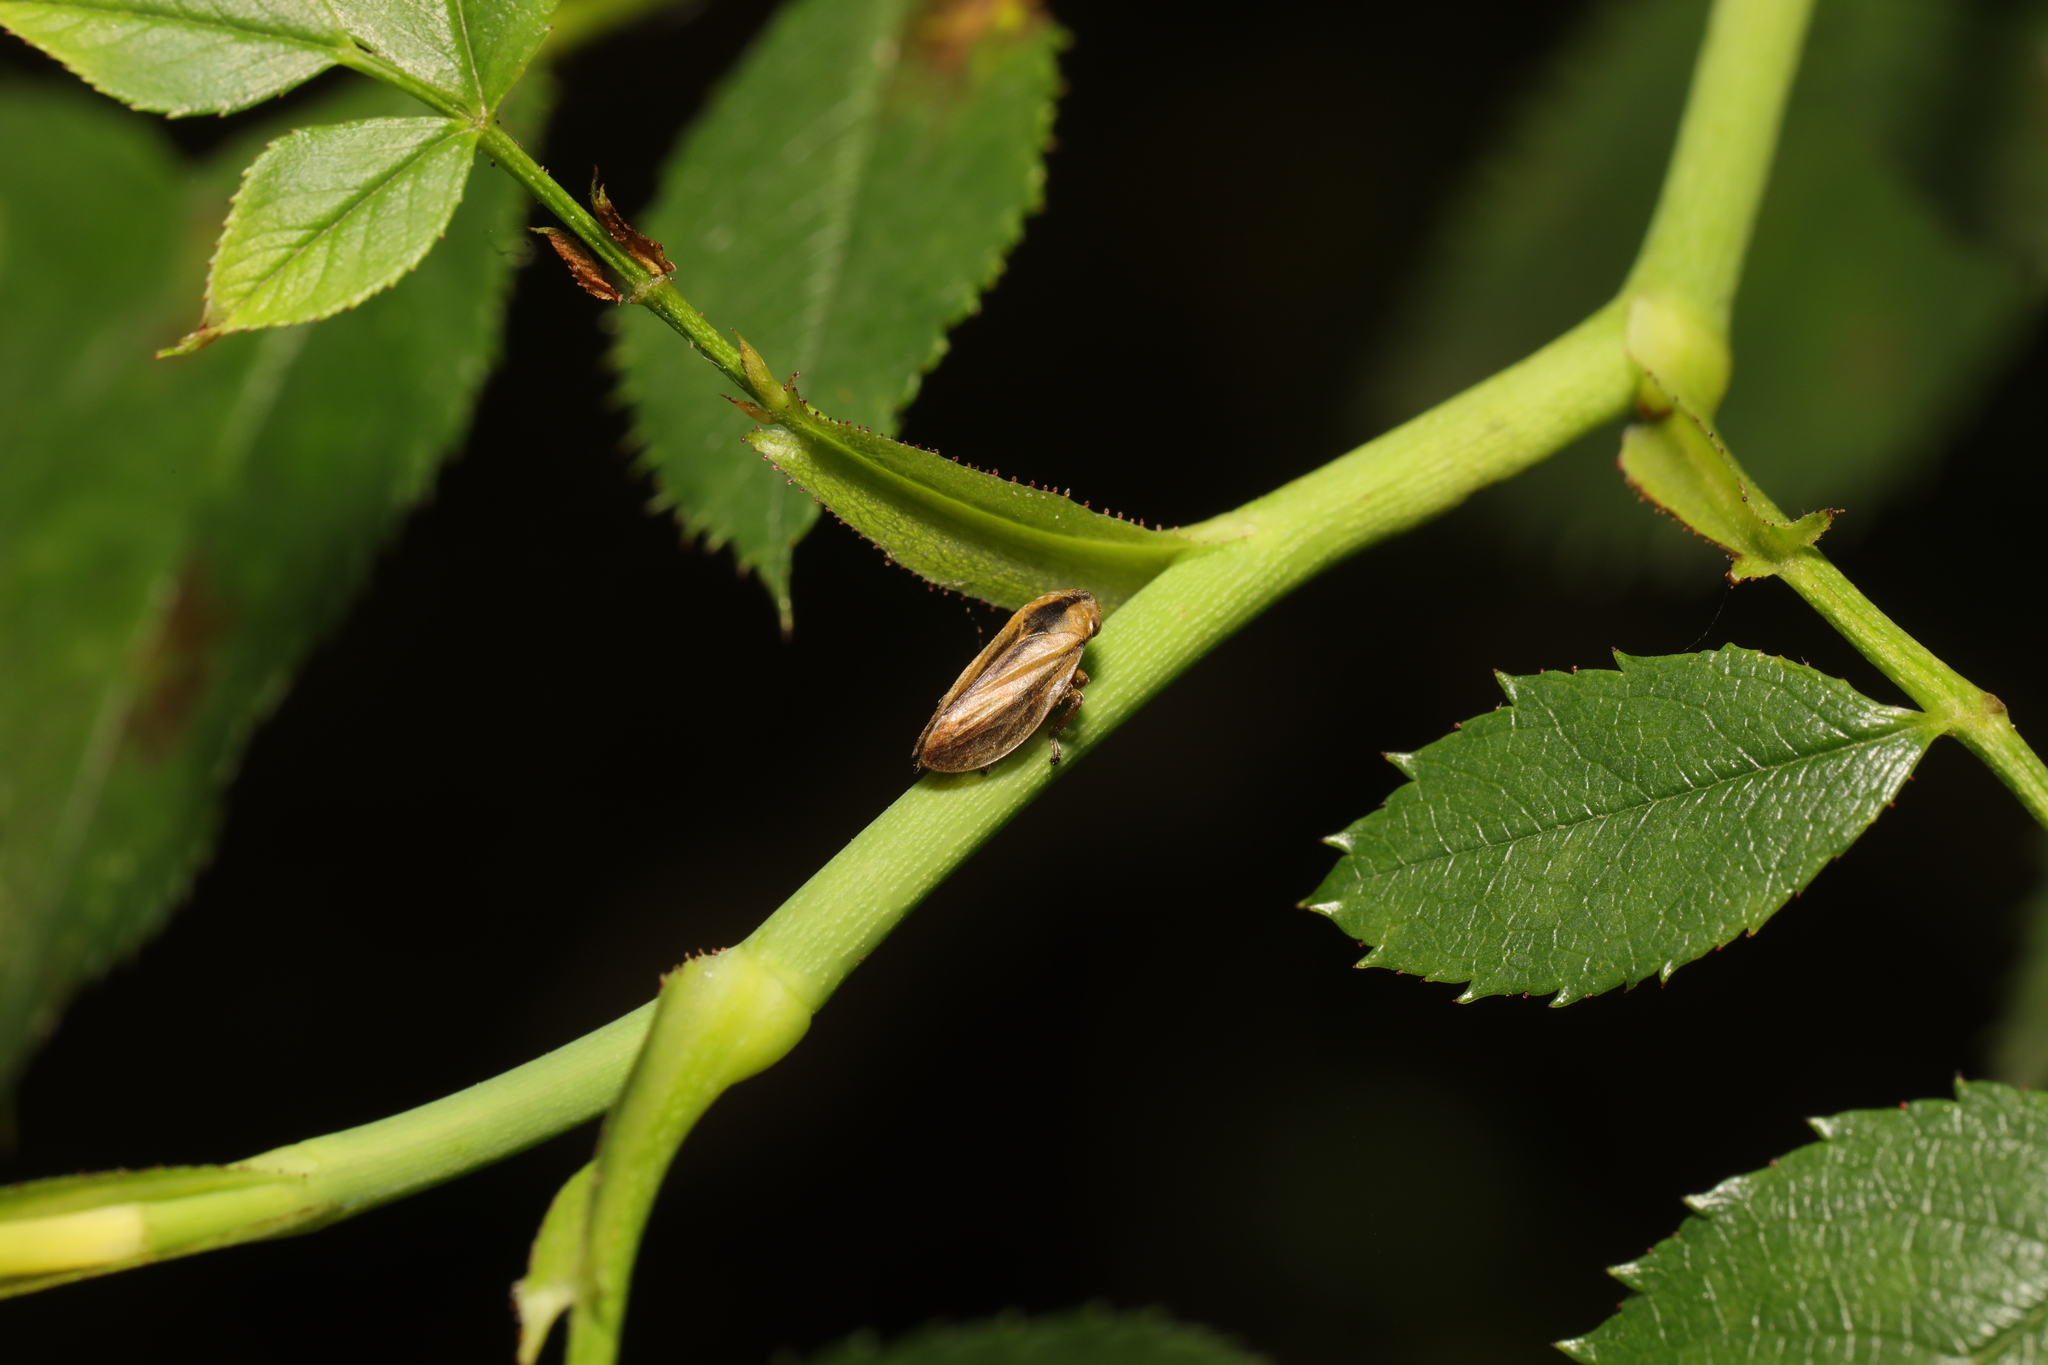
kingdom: Animalia
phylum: Arthropoda
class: Insecta
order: Hemiptera
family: Aphrophoridae
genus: Philaenus
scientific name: Philaenus spumarius
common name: Meadow spittlebug
